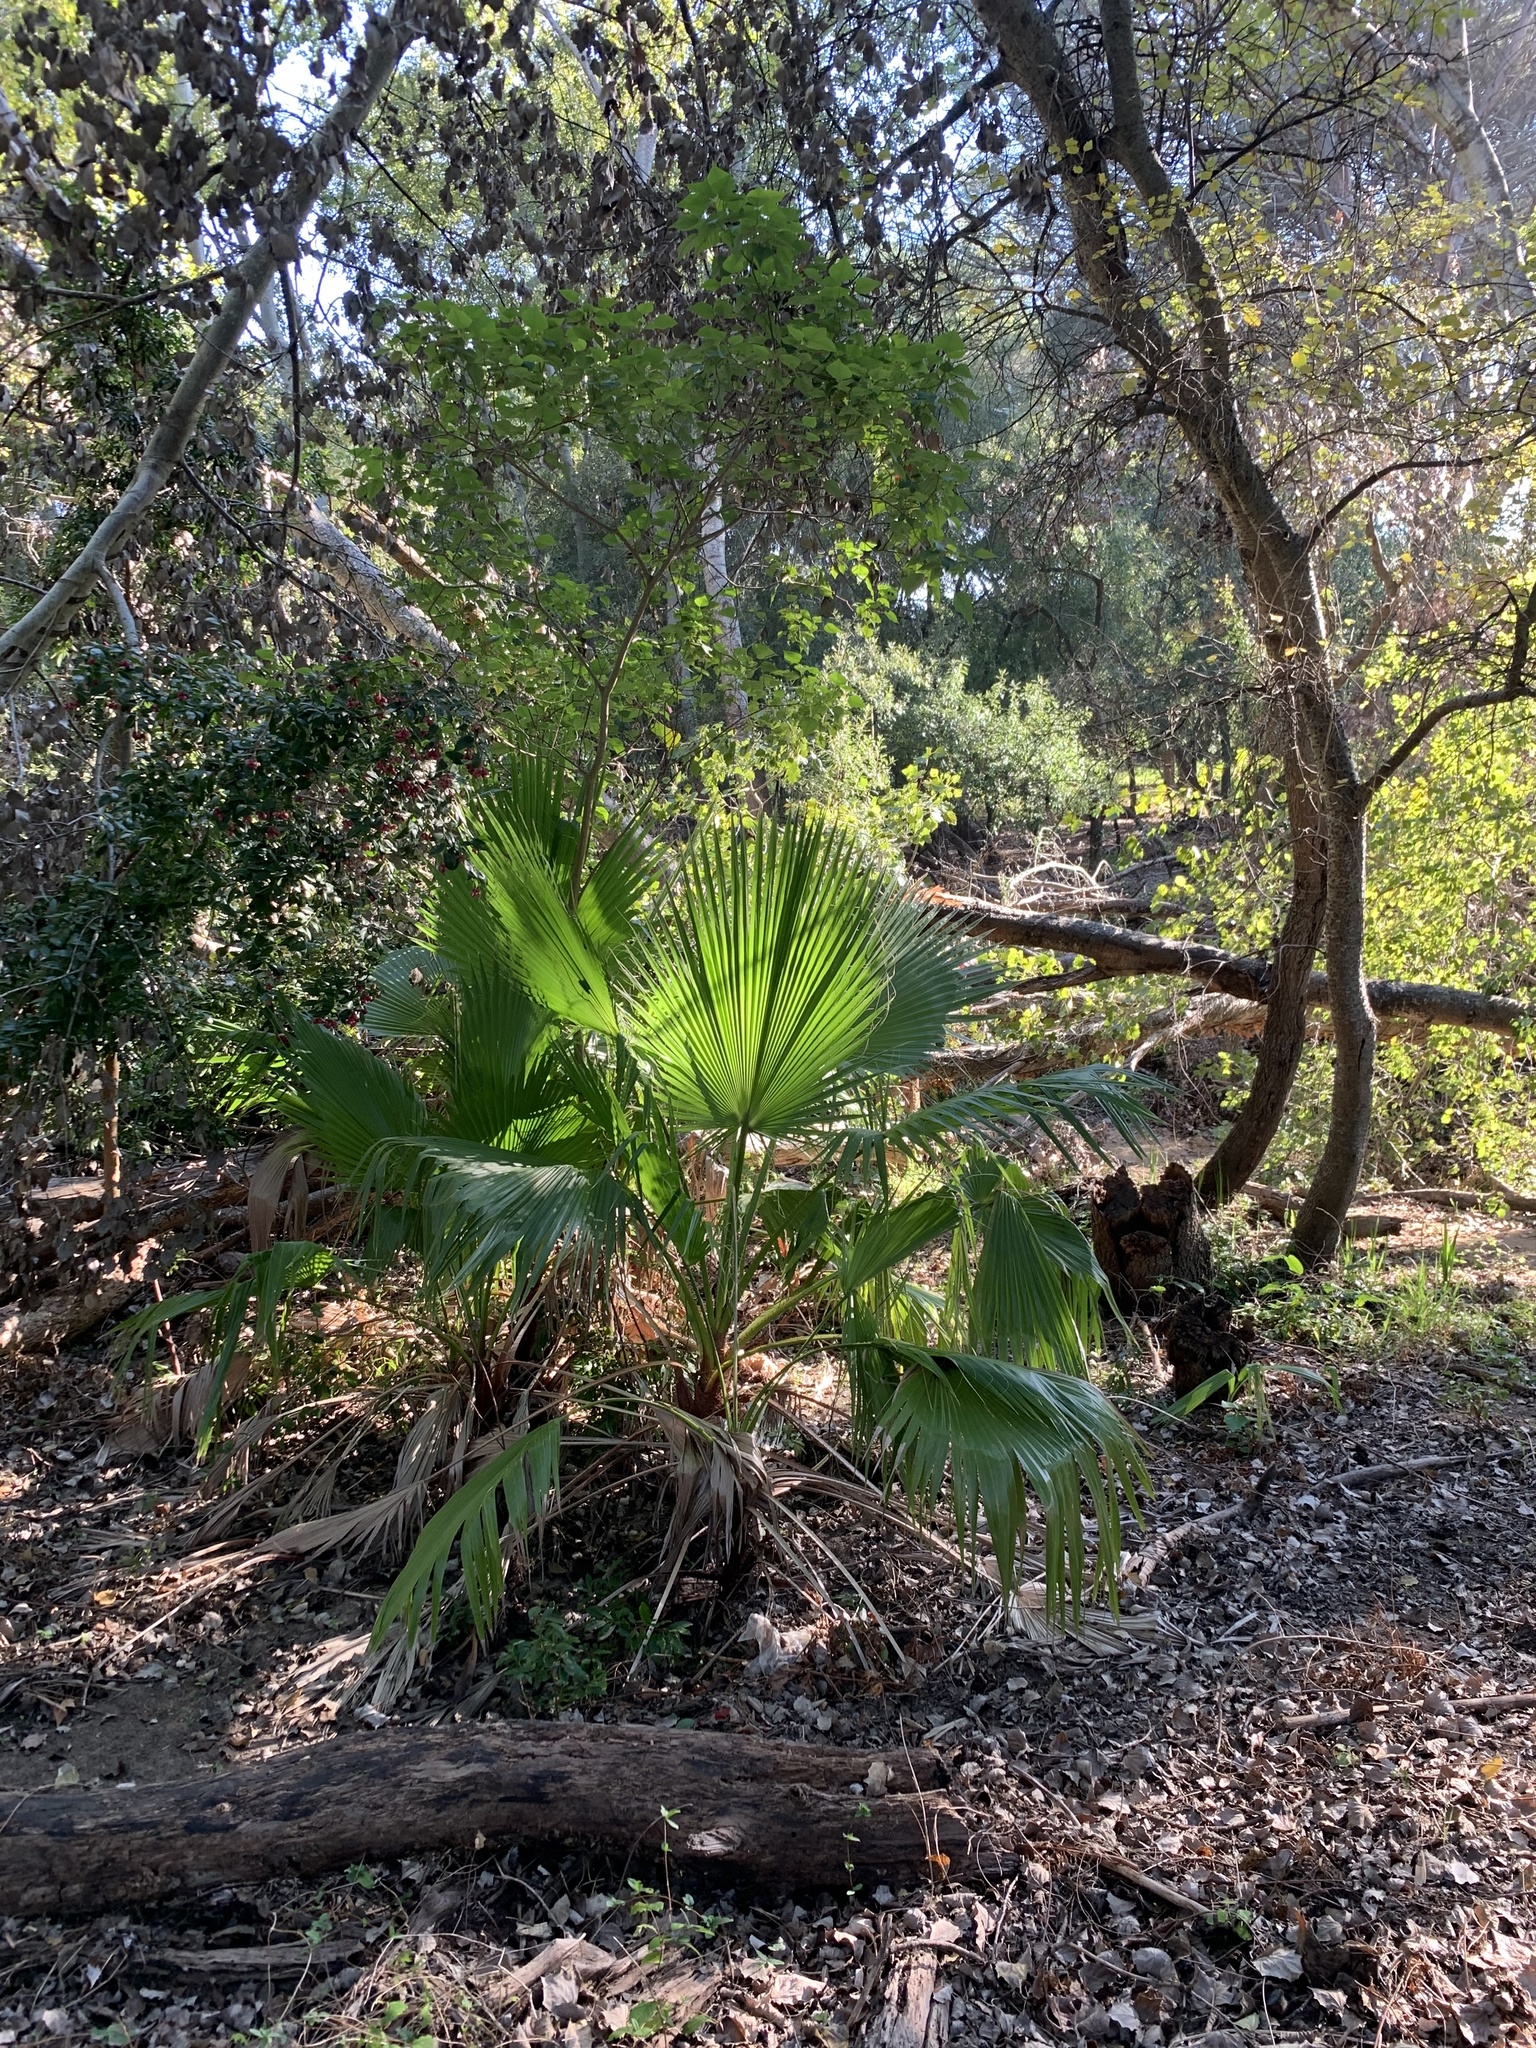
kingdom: Plantae
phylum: Tracheophyta
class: Liliopsida
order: Arecales
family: Arecaceae
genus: Washingtonia
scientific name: Washingtonia robusta
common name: Mexican fan palm
